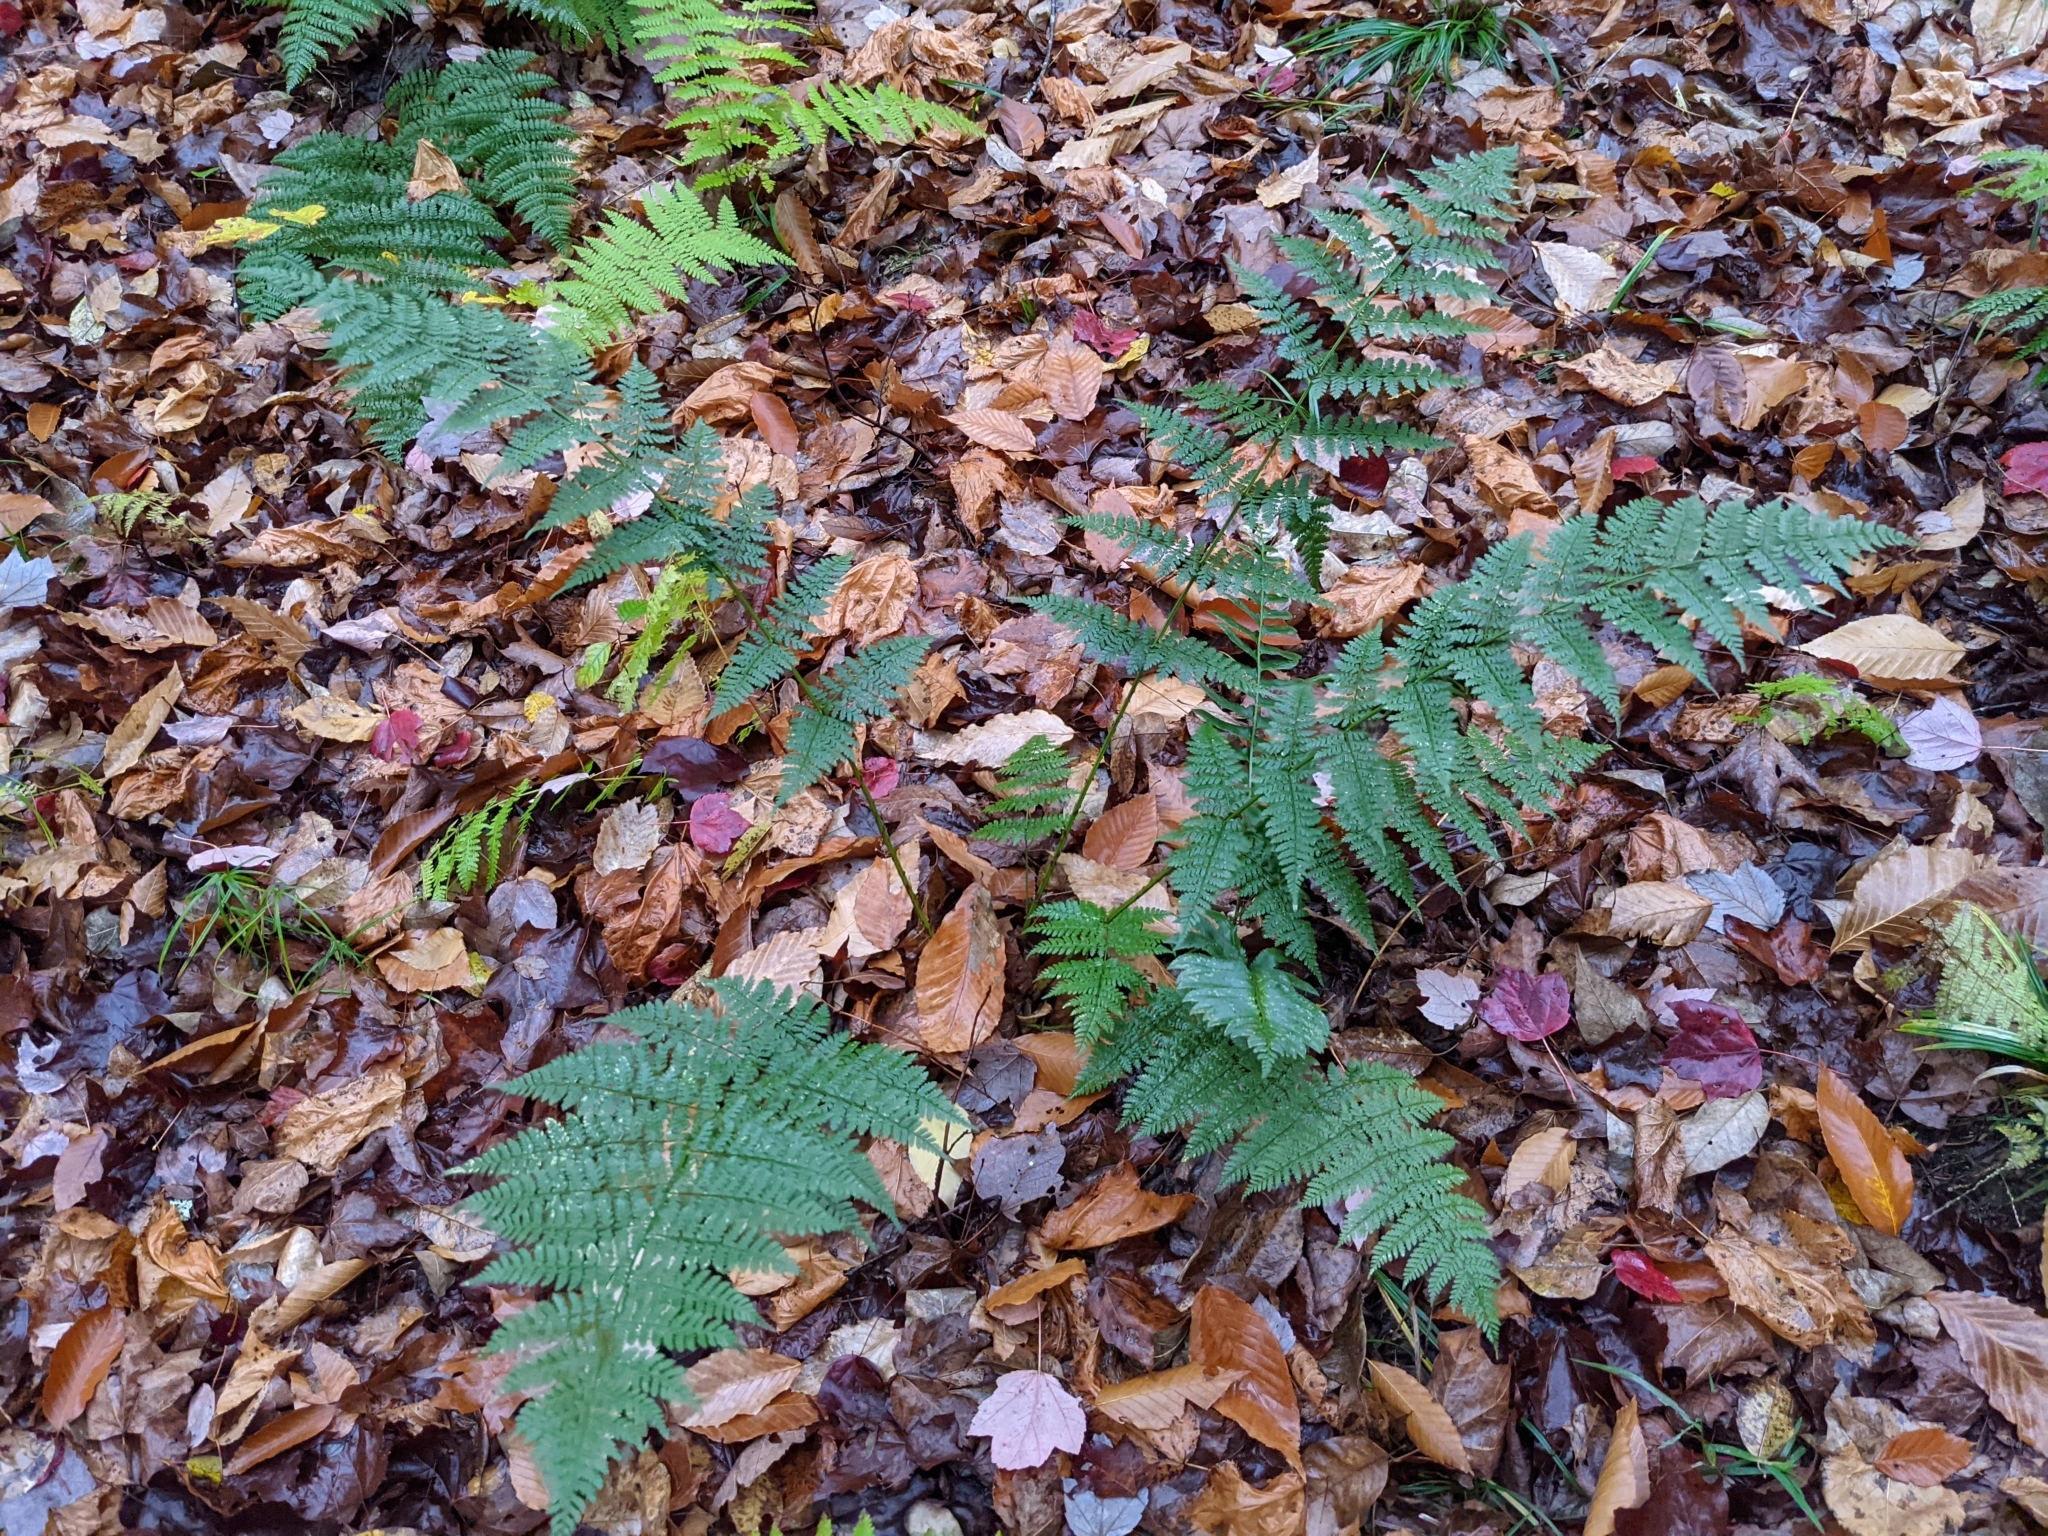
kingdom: Plantae
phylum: Tracheophyta
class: Polypodiopsida
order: Polypodiales
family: Dryopteridaceae
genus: Dryopteris
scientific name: Dryopteris intermedia
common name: Evergreen wood fern
